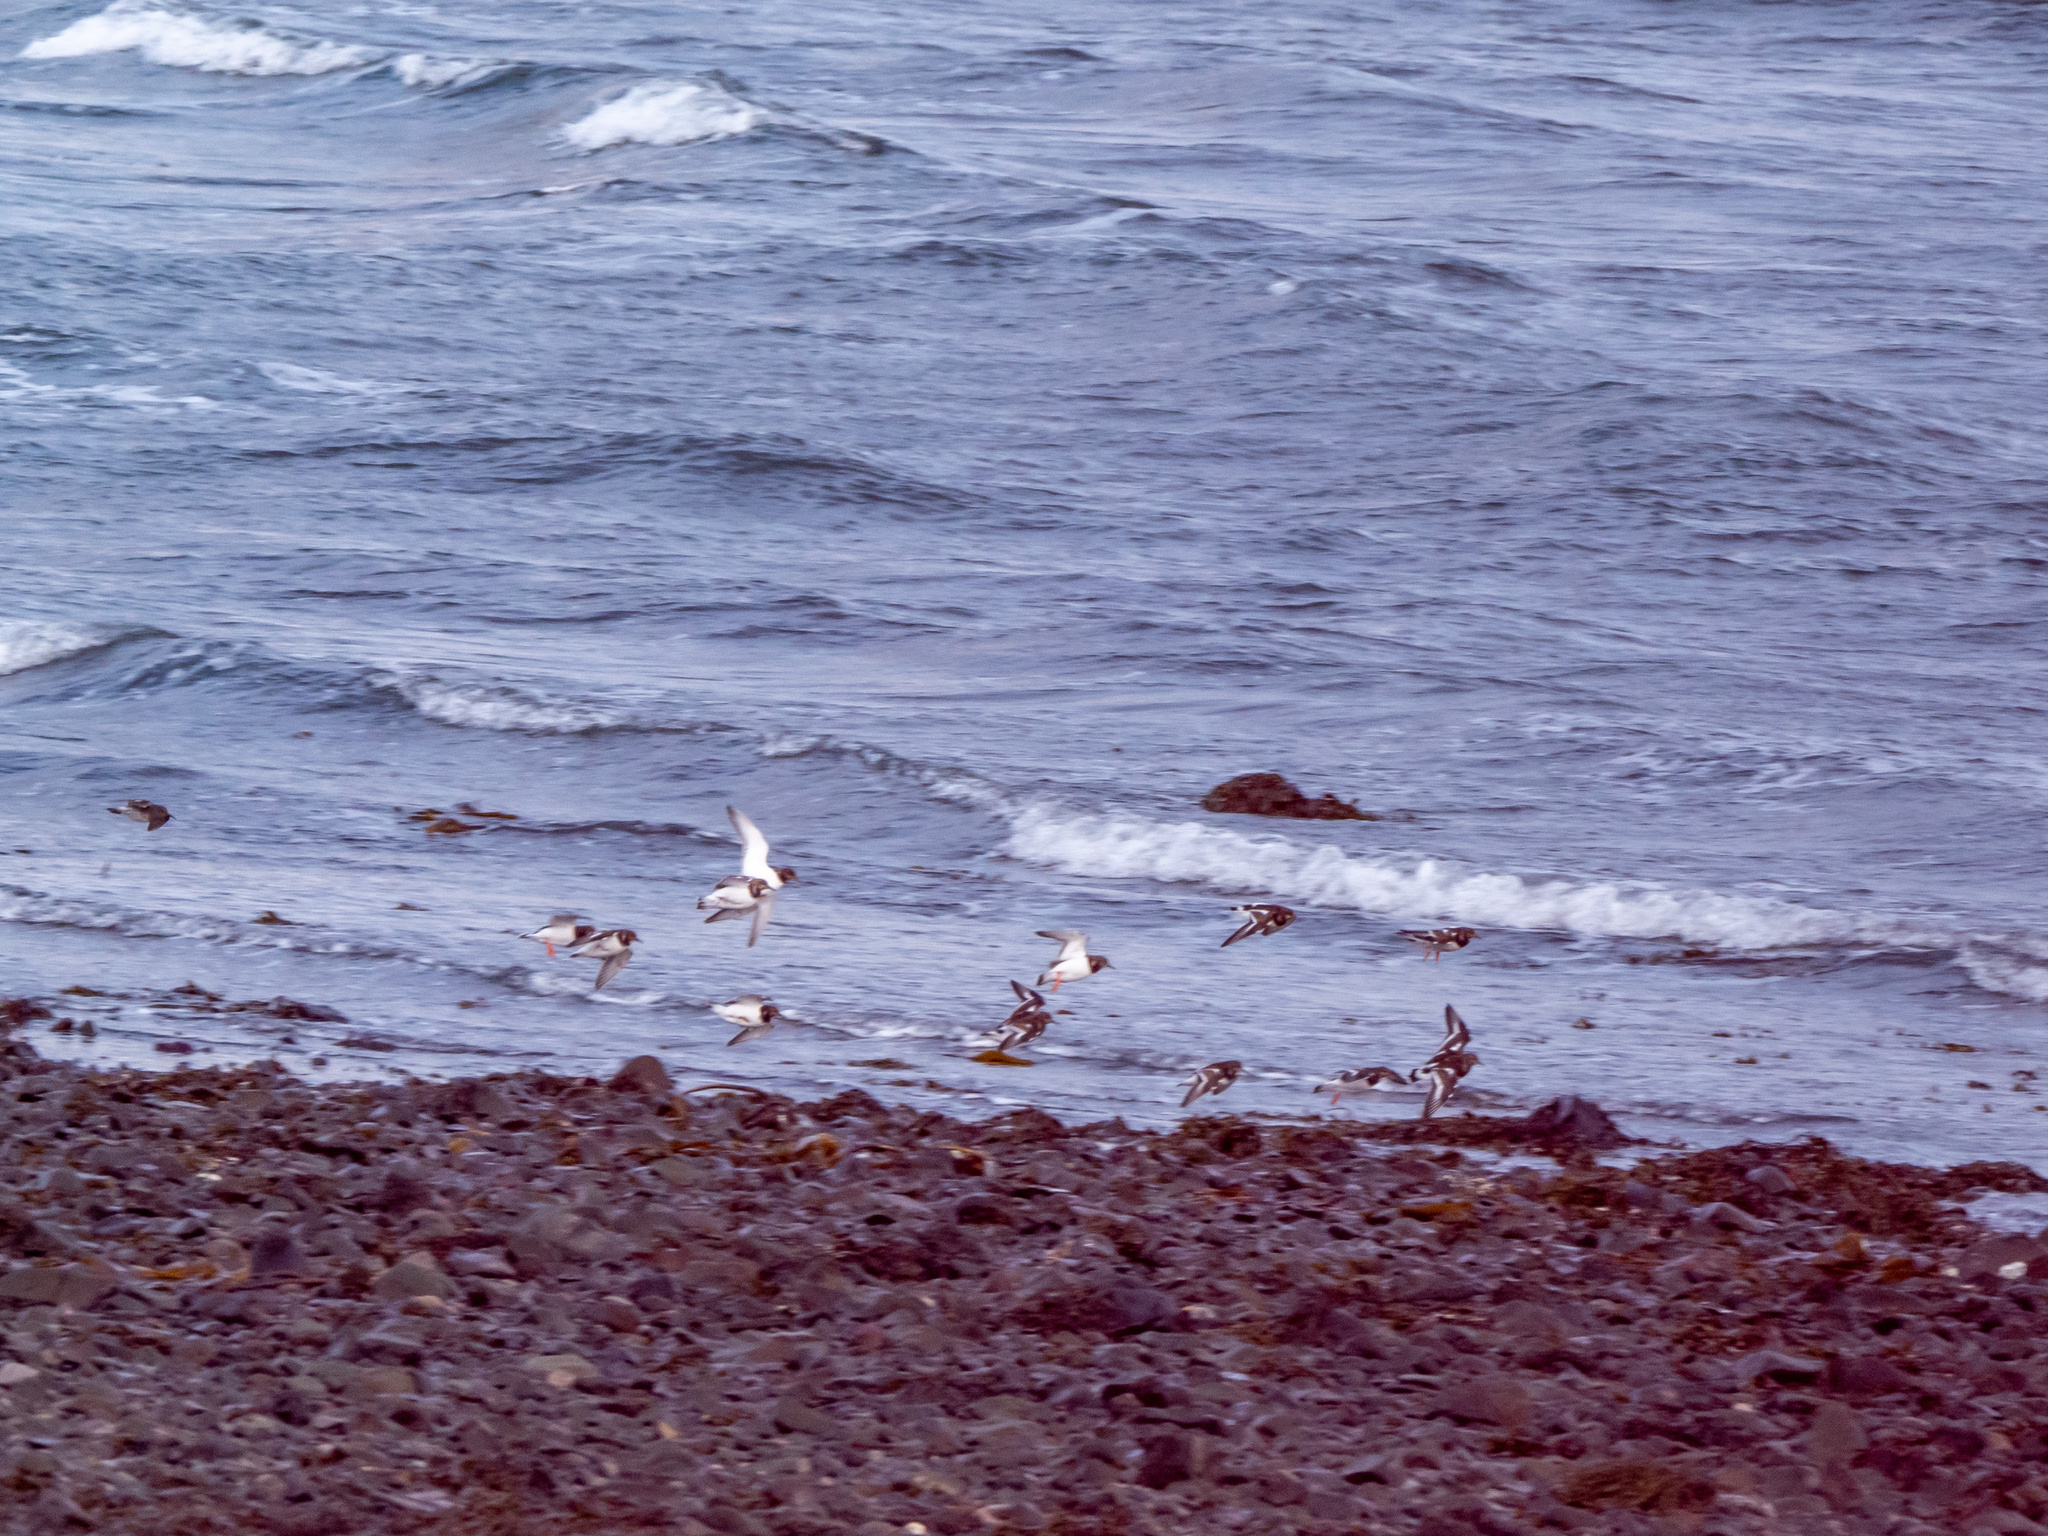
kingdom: Animalia
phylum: Chordata
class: Aves
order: Charadriiformes
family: Scolopacidae
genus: Arenaria
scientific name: Arenaria interpres
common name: Ruddy turnstone
